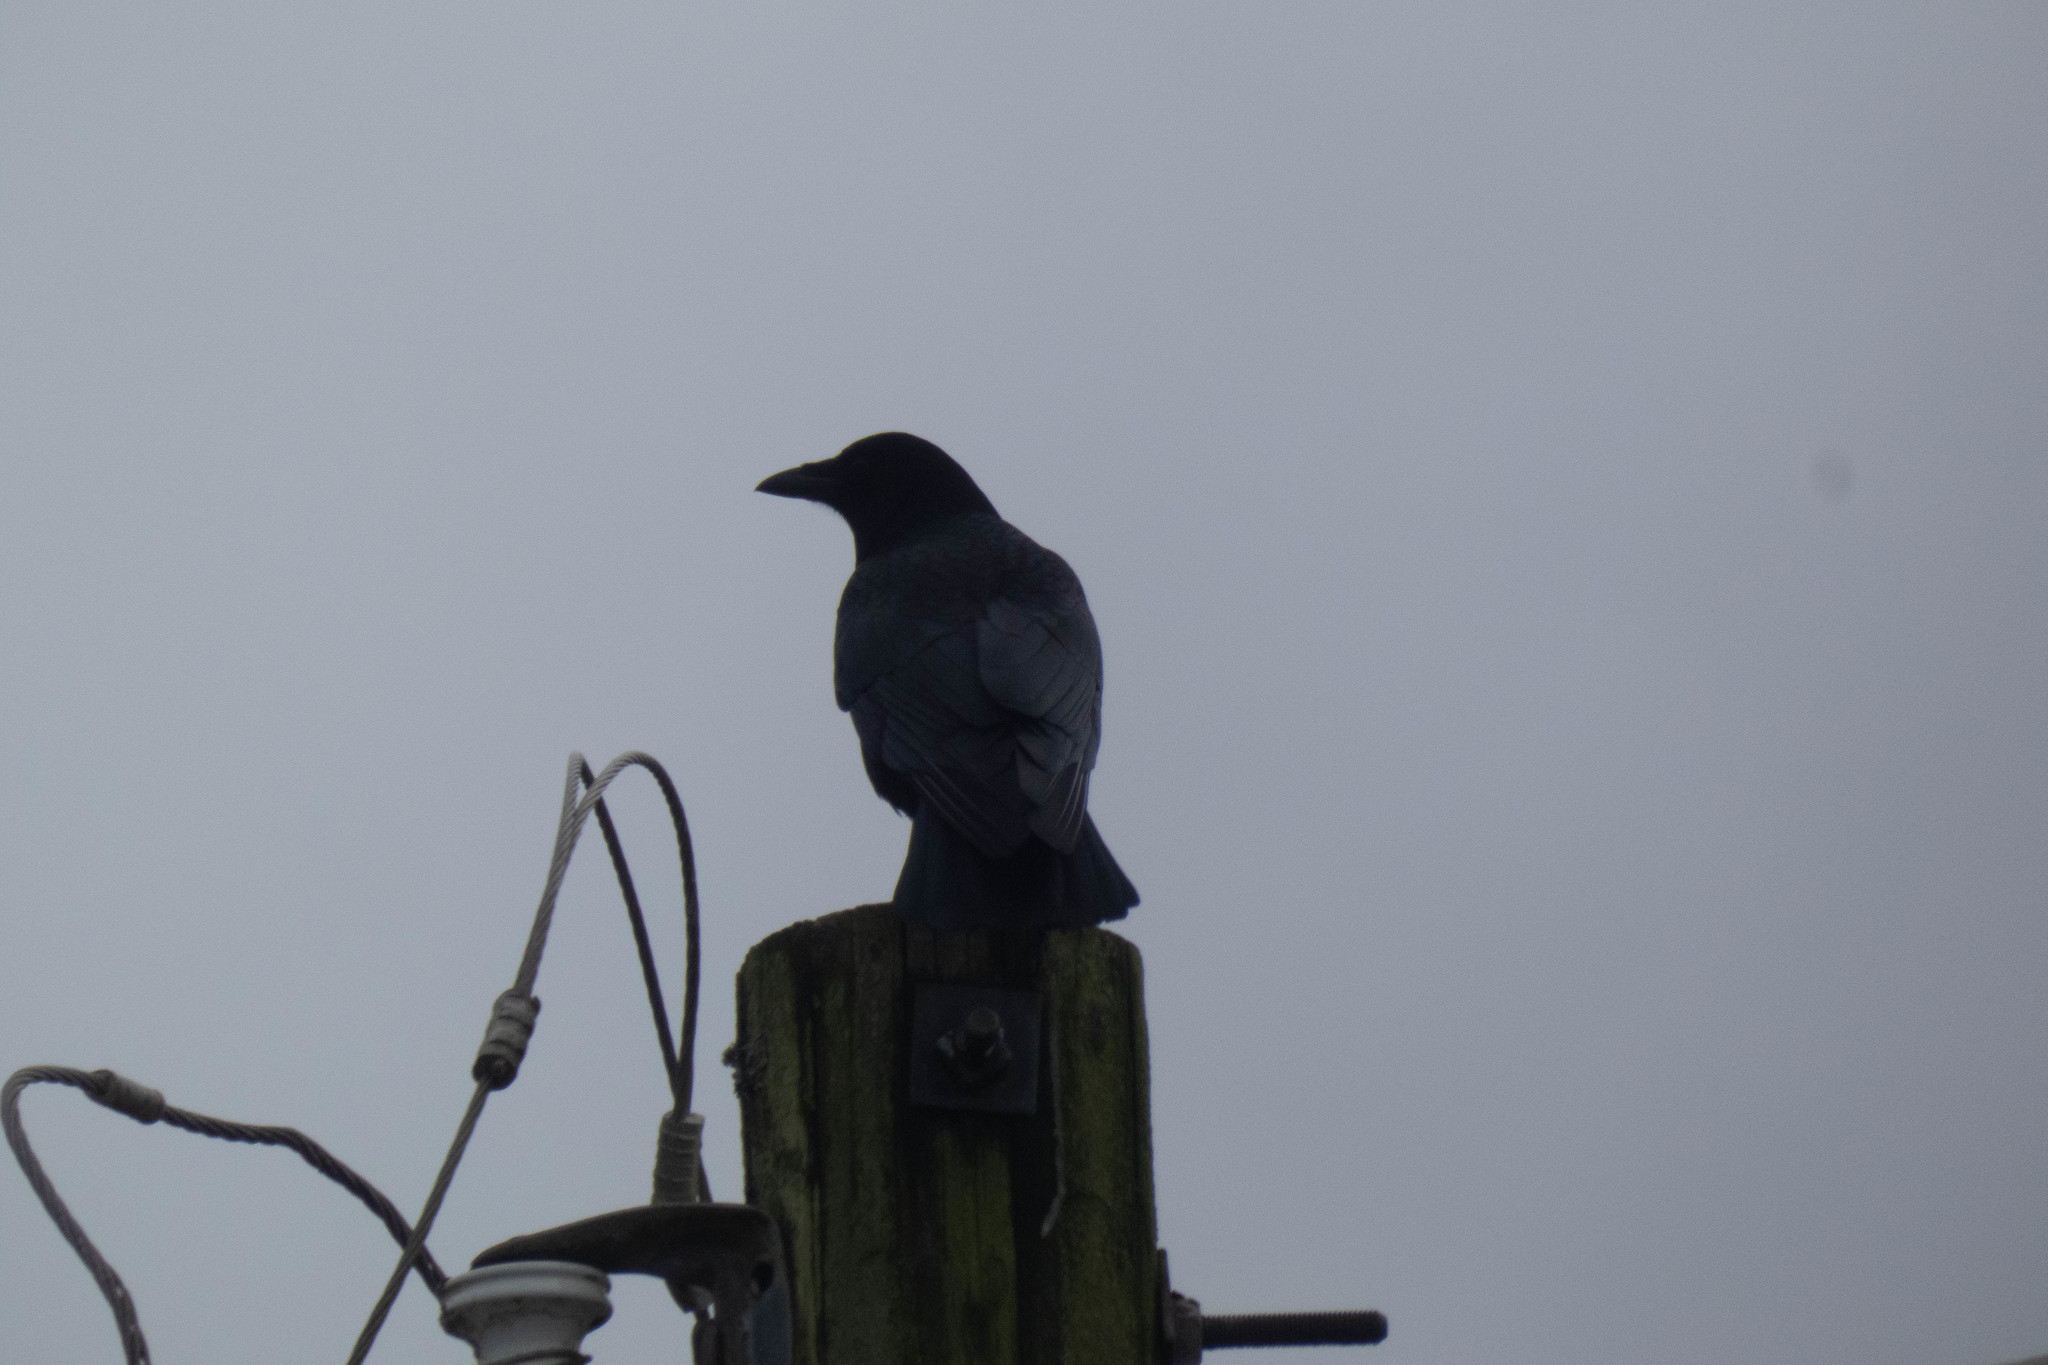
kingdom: Animalia
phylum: Chordata
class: Aves
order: Passeriformes
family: Corvidae
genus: Corvus
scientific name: Corvus brachyrhynchos
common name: American crow
